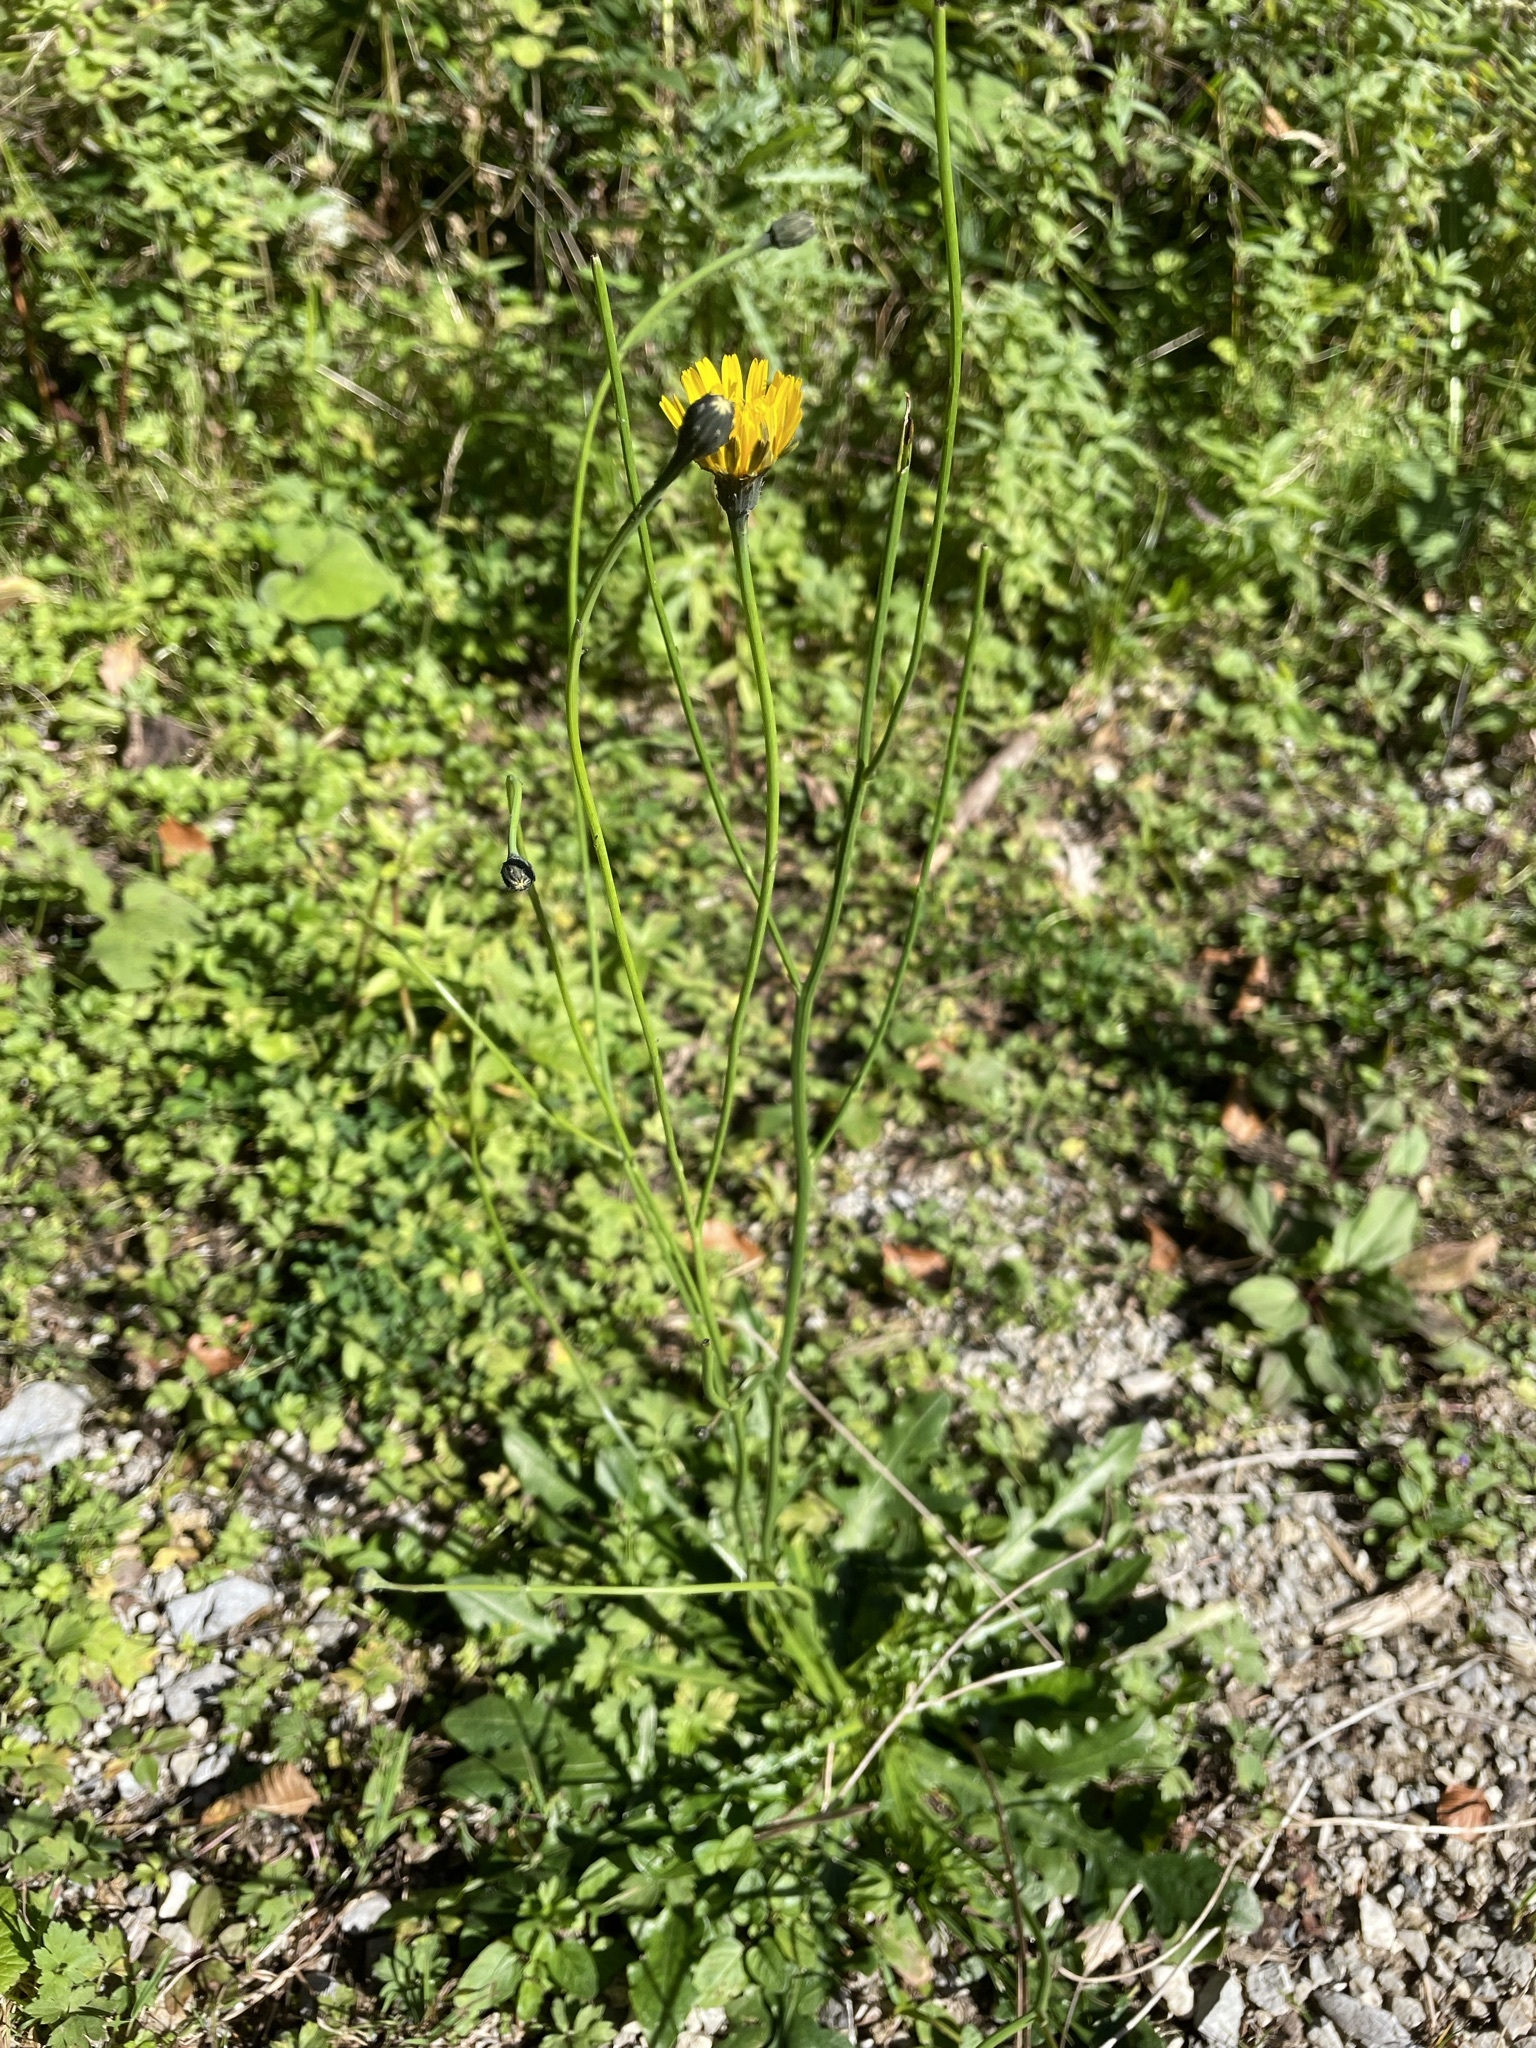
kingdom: Plantae
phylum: Tracheophyta
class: Magnoliopsida
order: Asterales
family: Asteraceae
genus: Scorzoneroides
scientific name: Scorzoneroides autumnalis
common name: Autumn hawkbit
